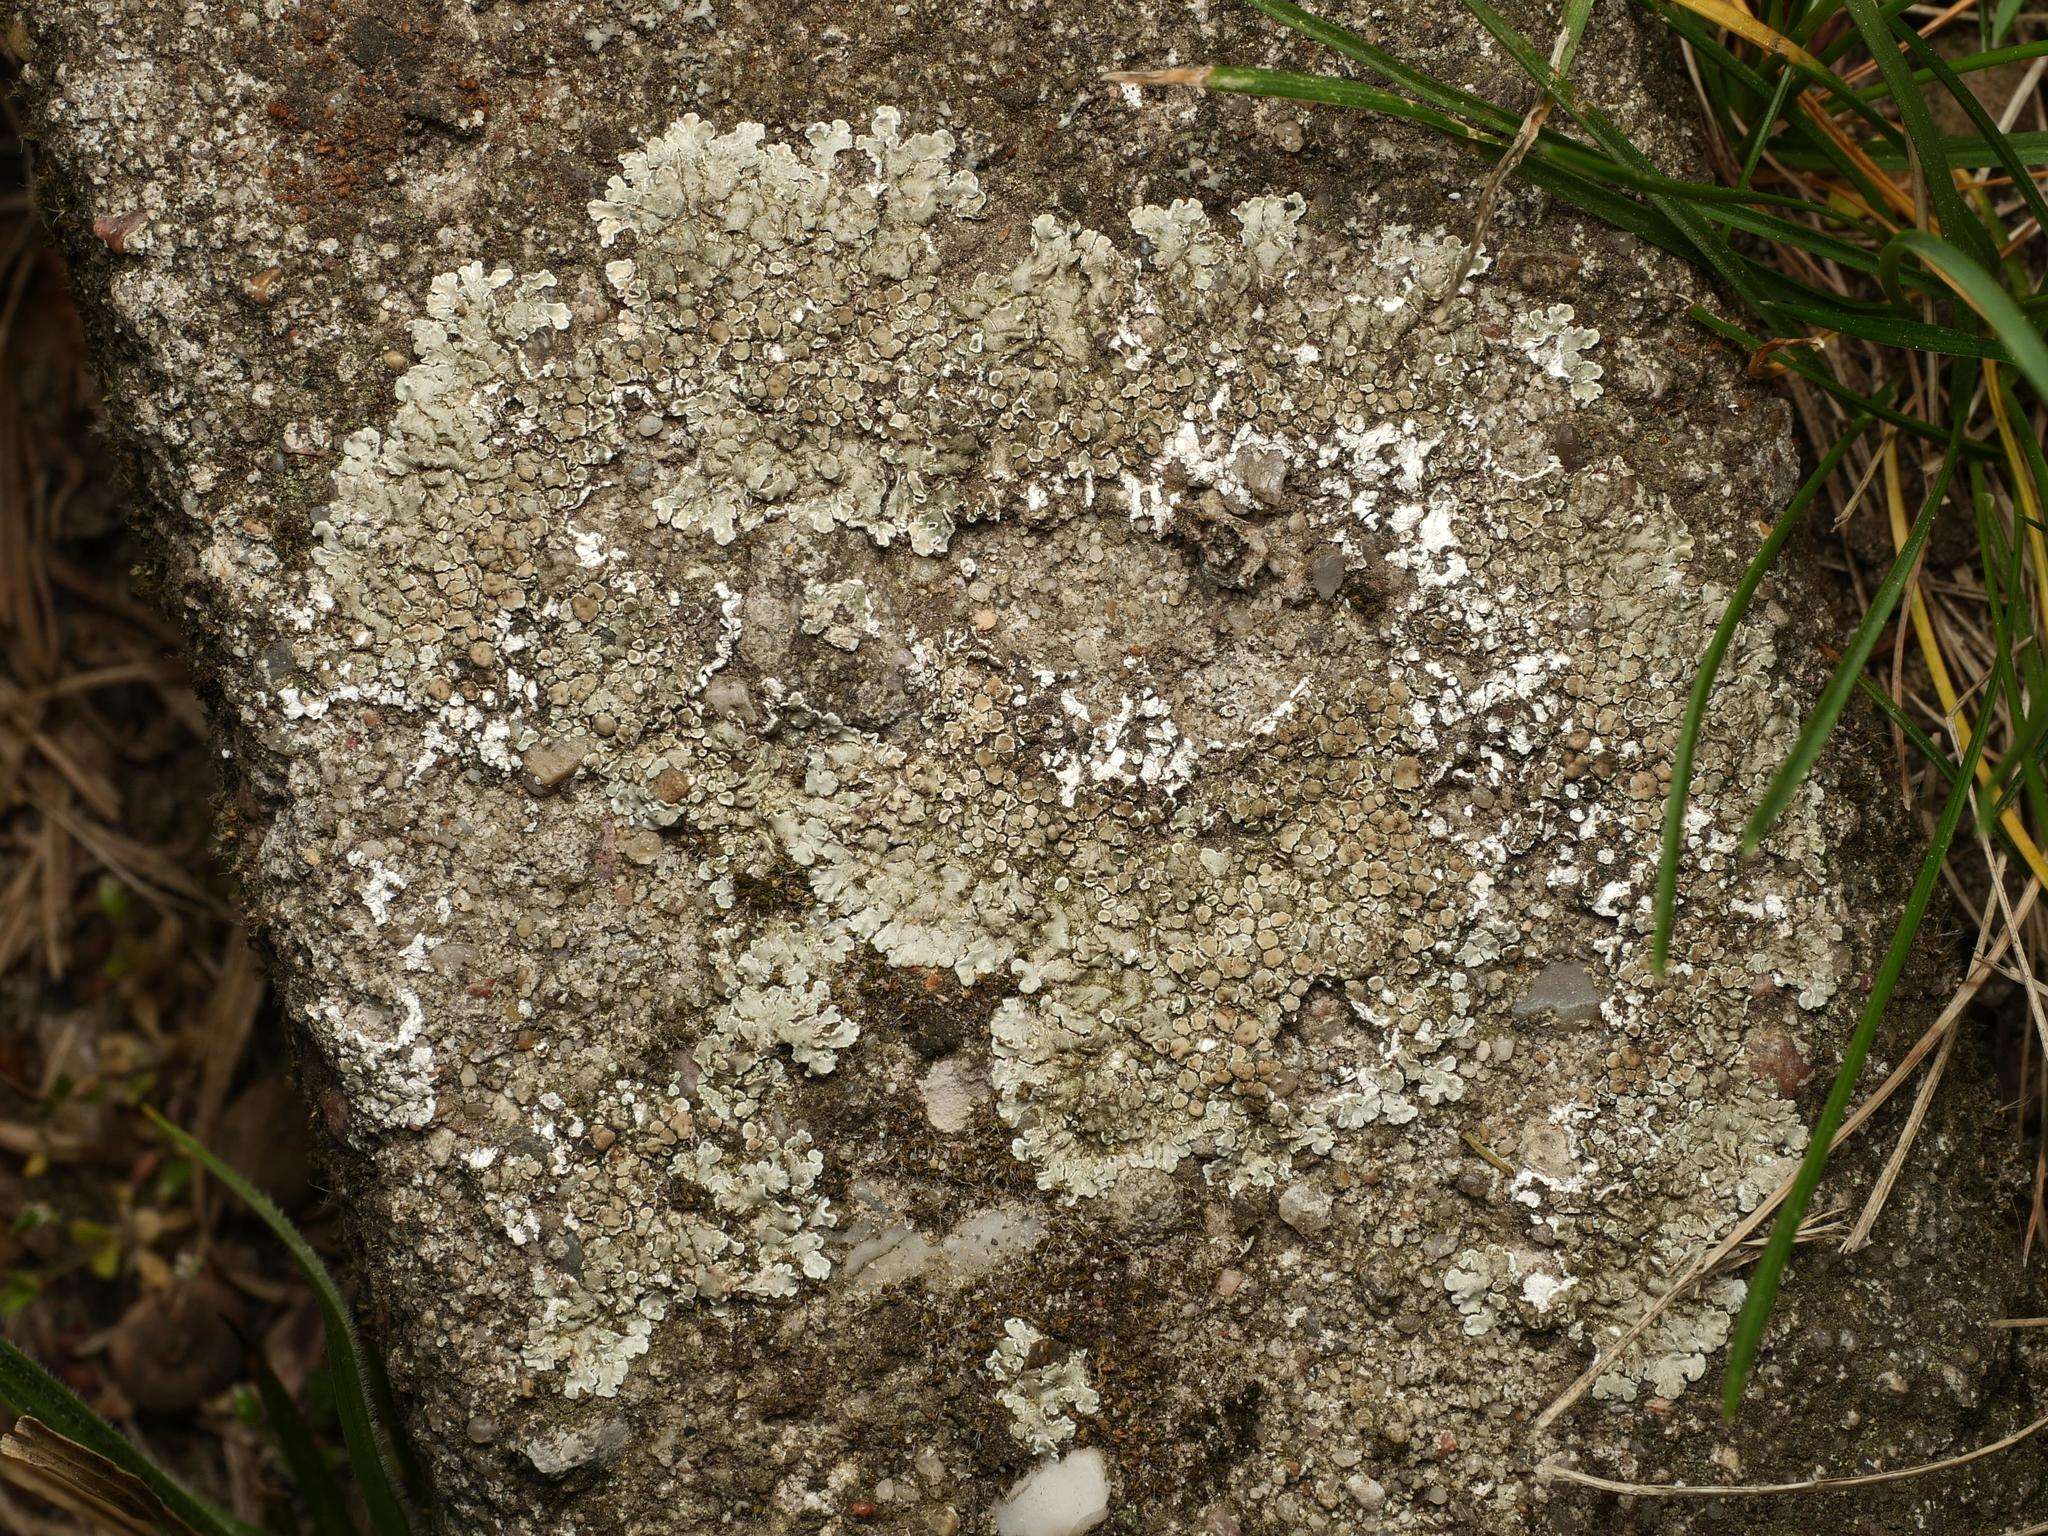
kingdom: Fungi
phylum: Ascomycota
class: Lecanoromycetes
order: Lecanorales
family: Lecanoraceae
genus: Protoparmeliopsis
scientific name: Protoparmeliopsis muralis
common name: Stonewall rim lichen
